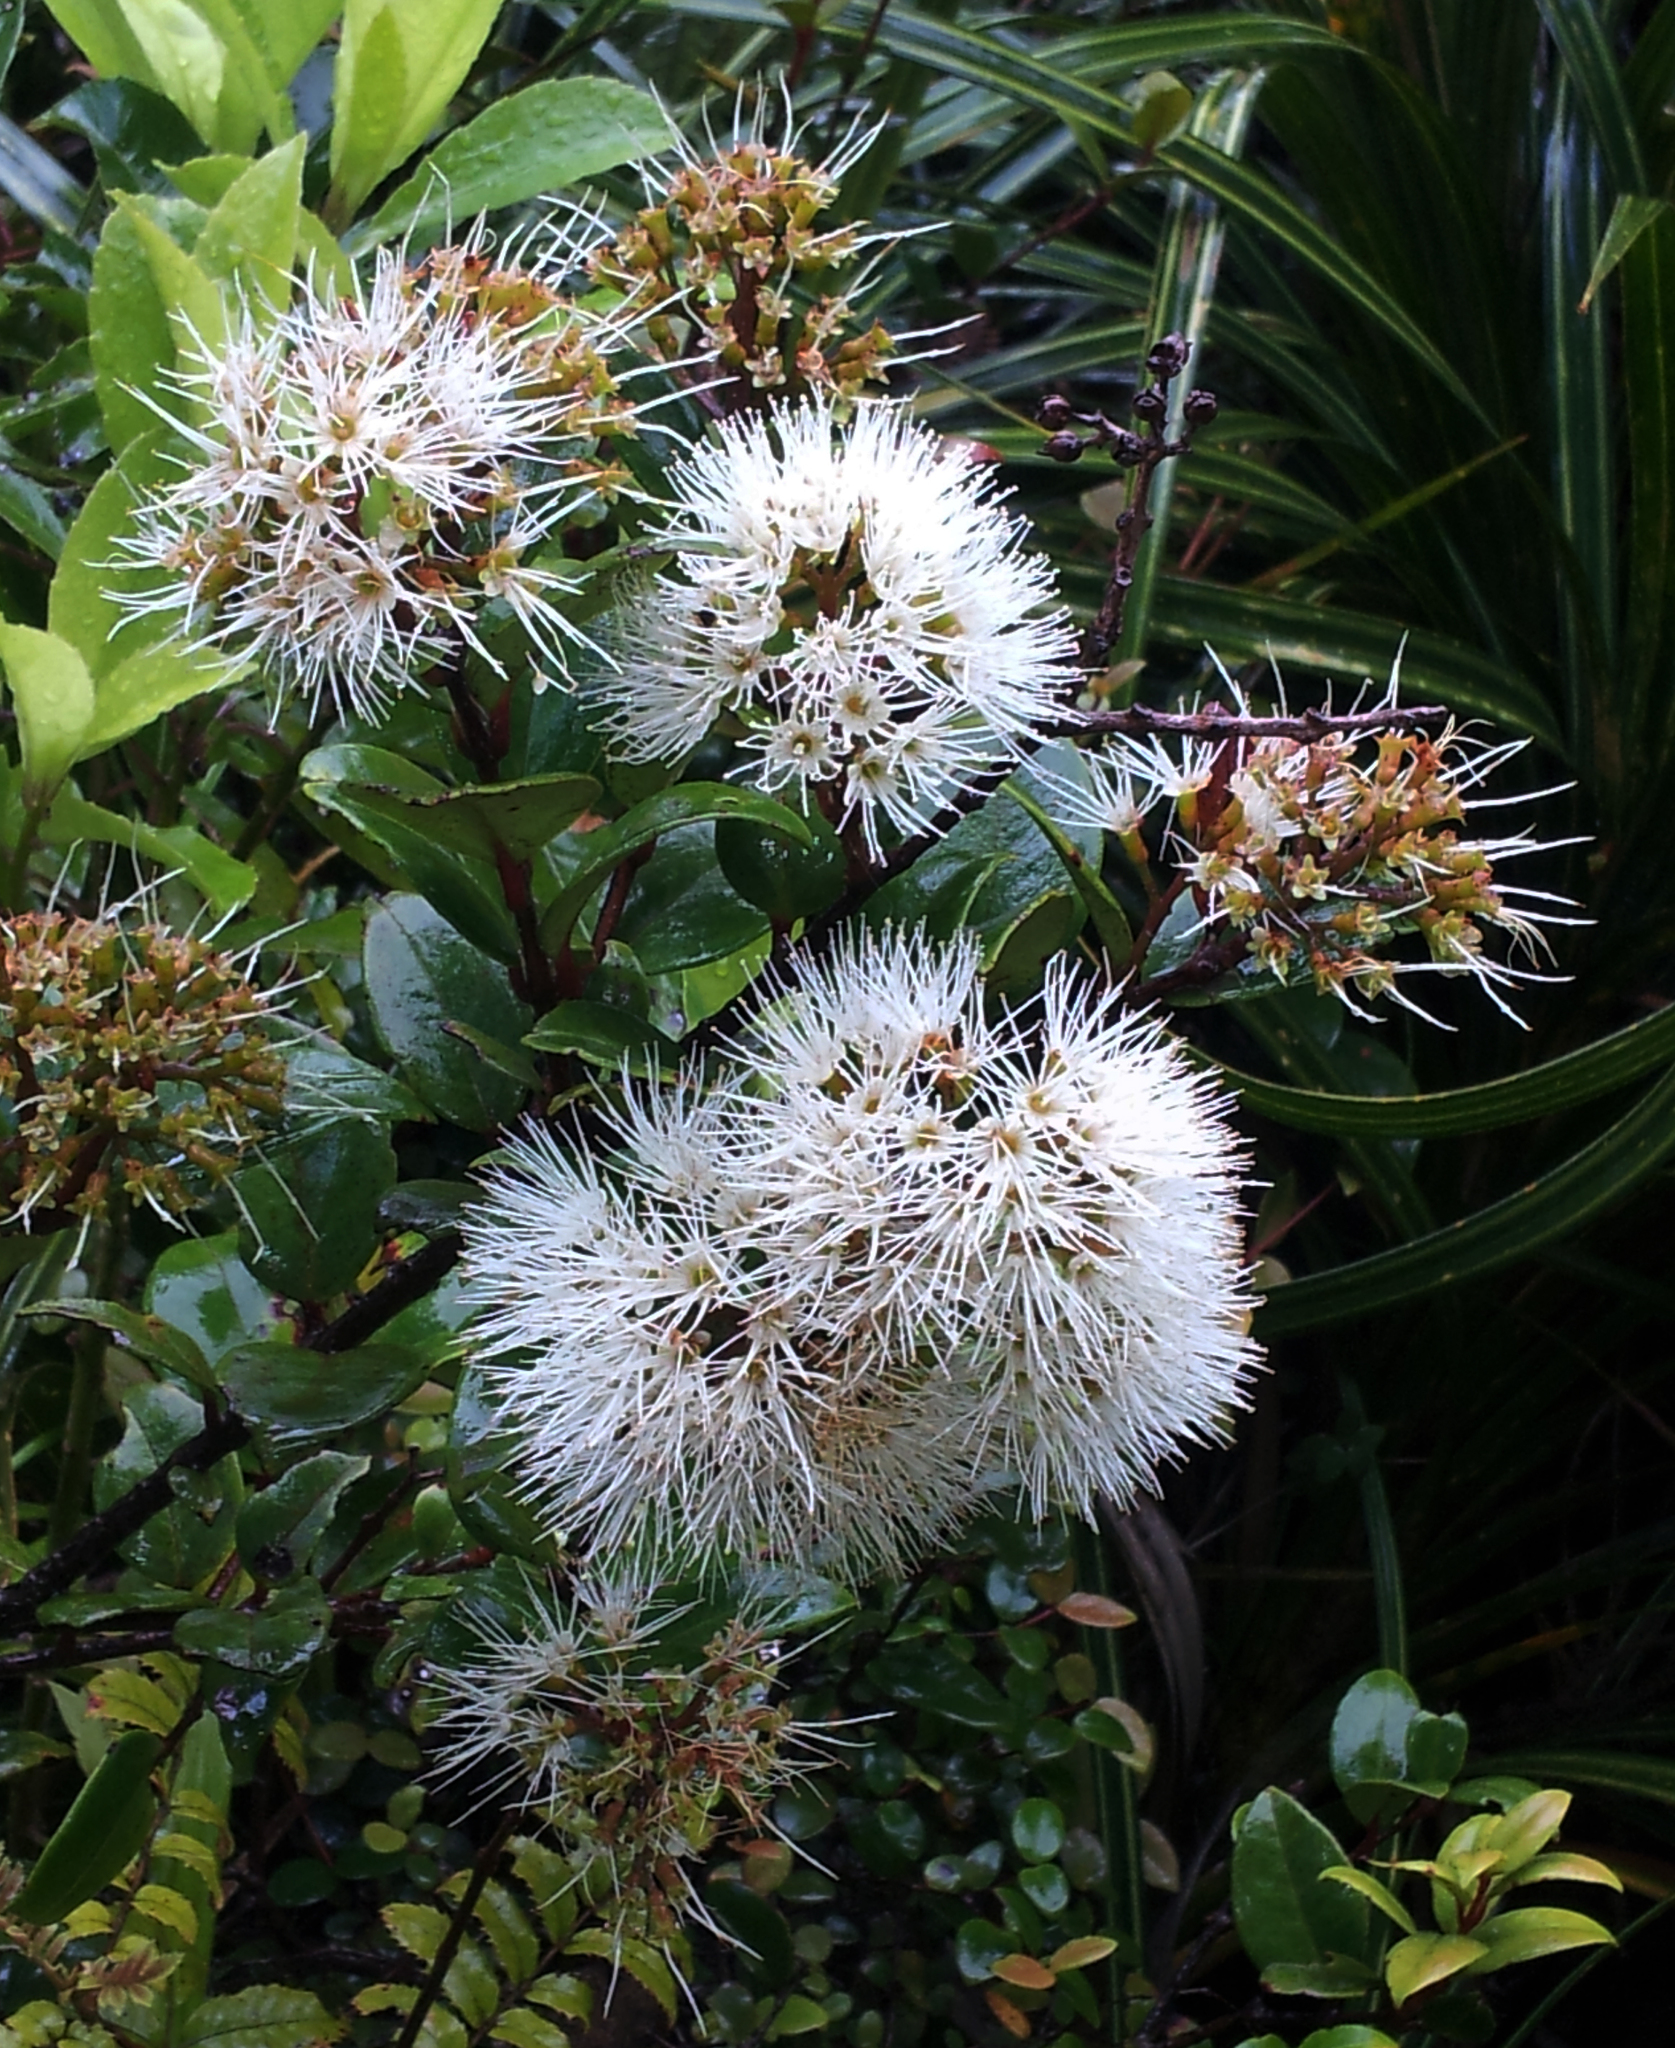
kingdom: Plantae
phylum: Tracheophyta
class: Magnoliopsida
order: Myrtales
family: Myrtaceae
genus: Metrosideros
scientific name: Metrosideros albiflora
